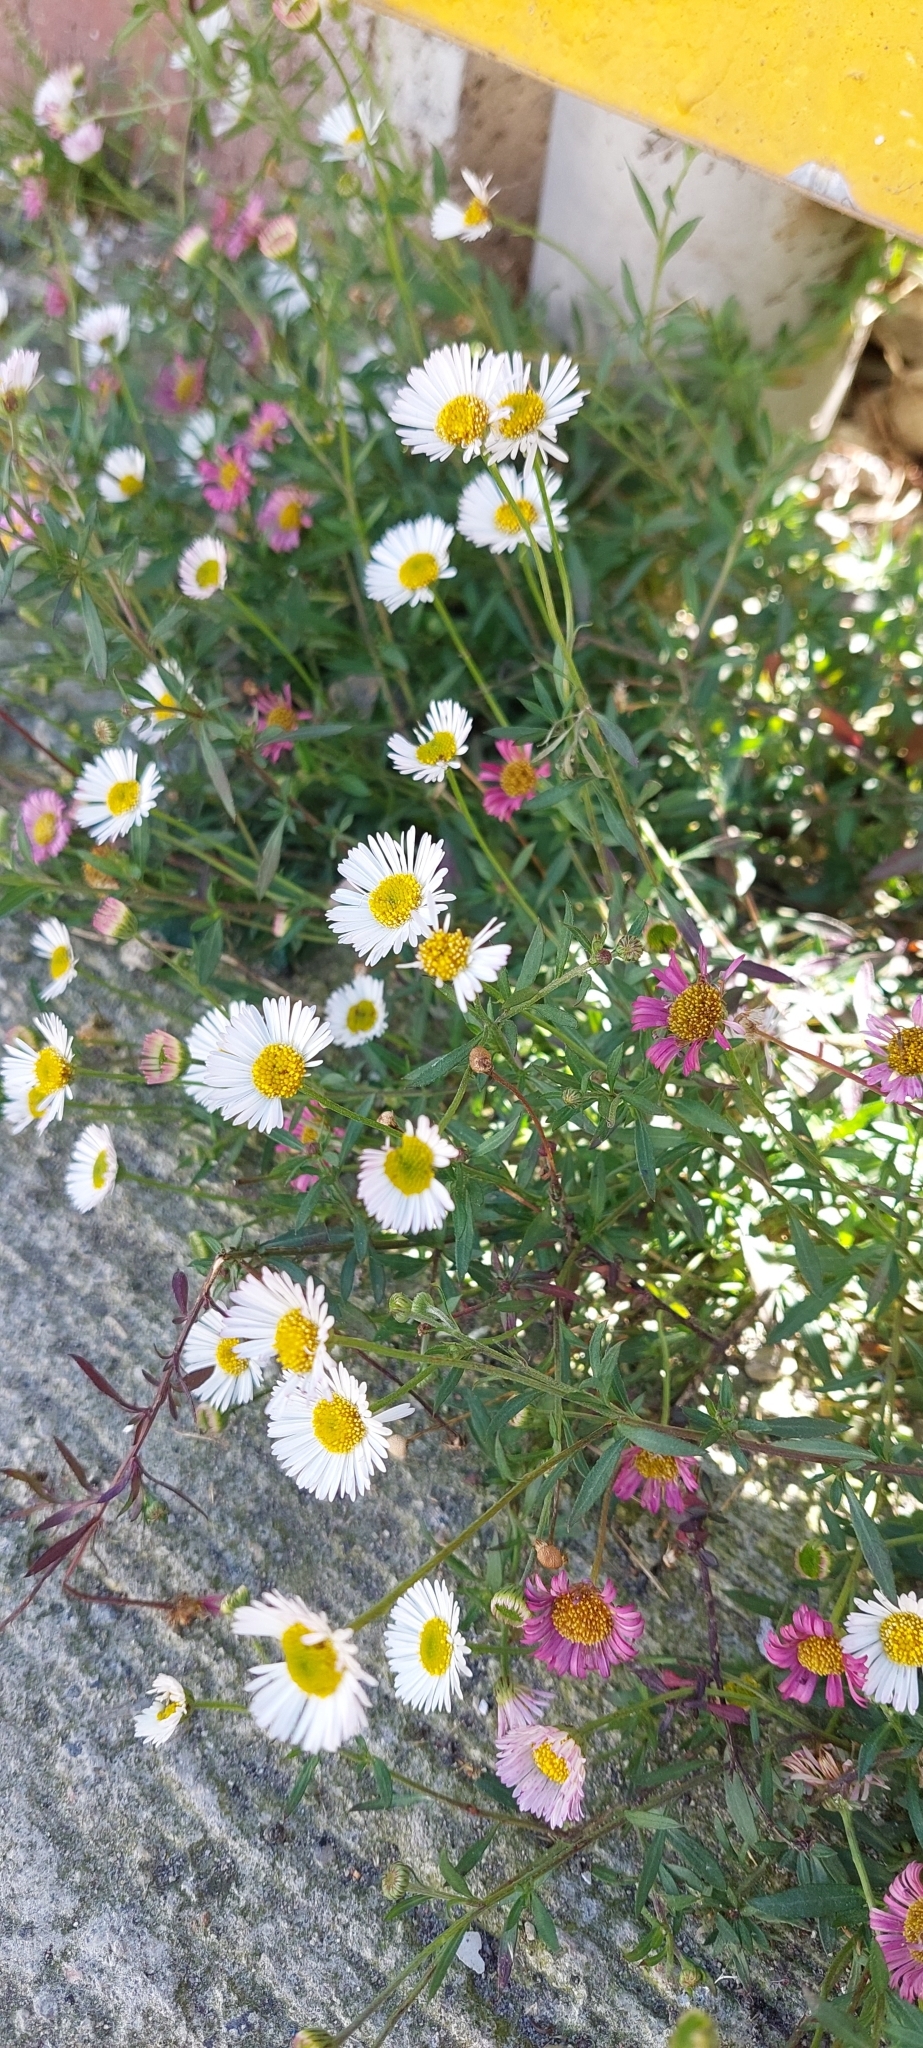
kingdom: Plantae
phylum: Tracheophyta
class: Magnoliopsida
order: Asterales
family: Asteraceae
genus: Erigeron
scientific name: Erigeron karvinskianus
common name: Mexican fleabane
